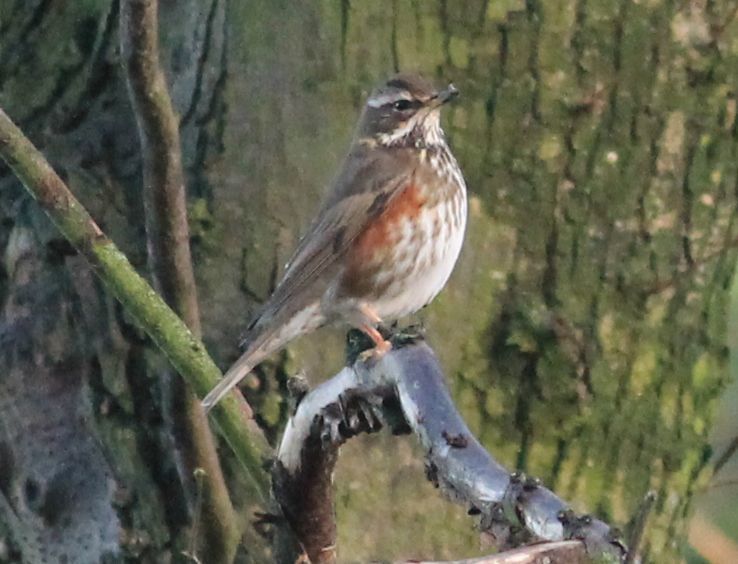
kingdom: Animalia
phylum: Chordata
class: Aves
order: Passeriformes
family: Turdidae
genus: Turdus
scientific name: Turdus iliacus
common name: Redwing
